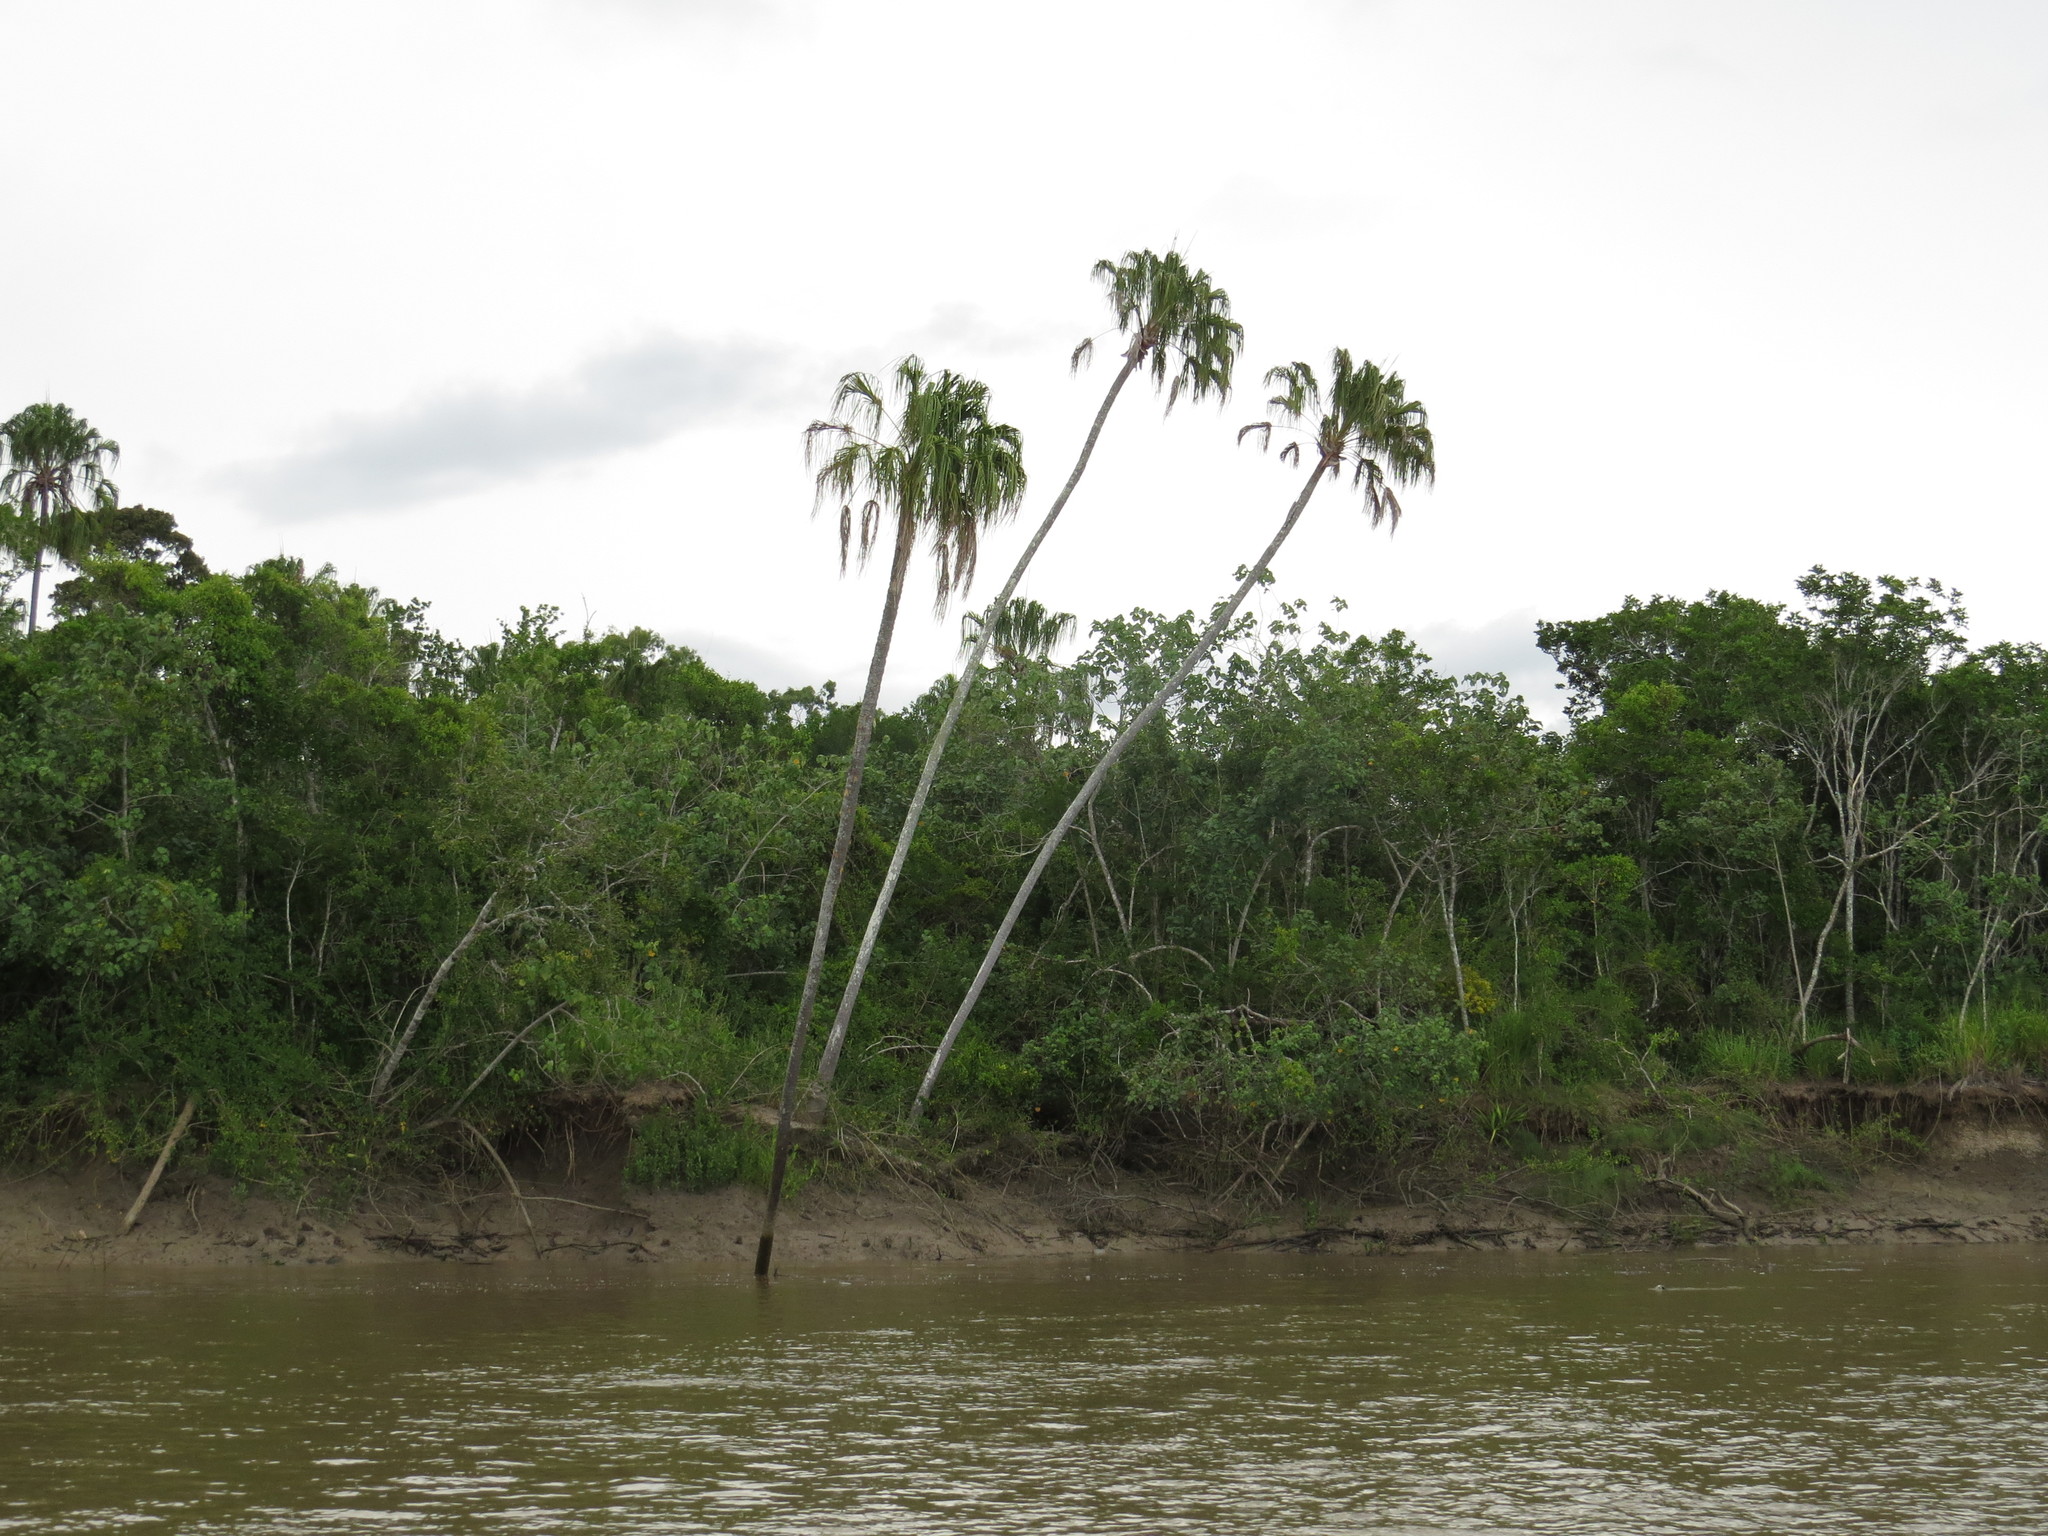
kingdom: Plantae
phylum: Tracheophyta
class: Liliopsida
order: Arecales
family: Arecaceae
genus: Livistona
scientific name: Livistona decora
